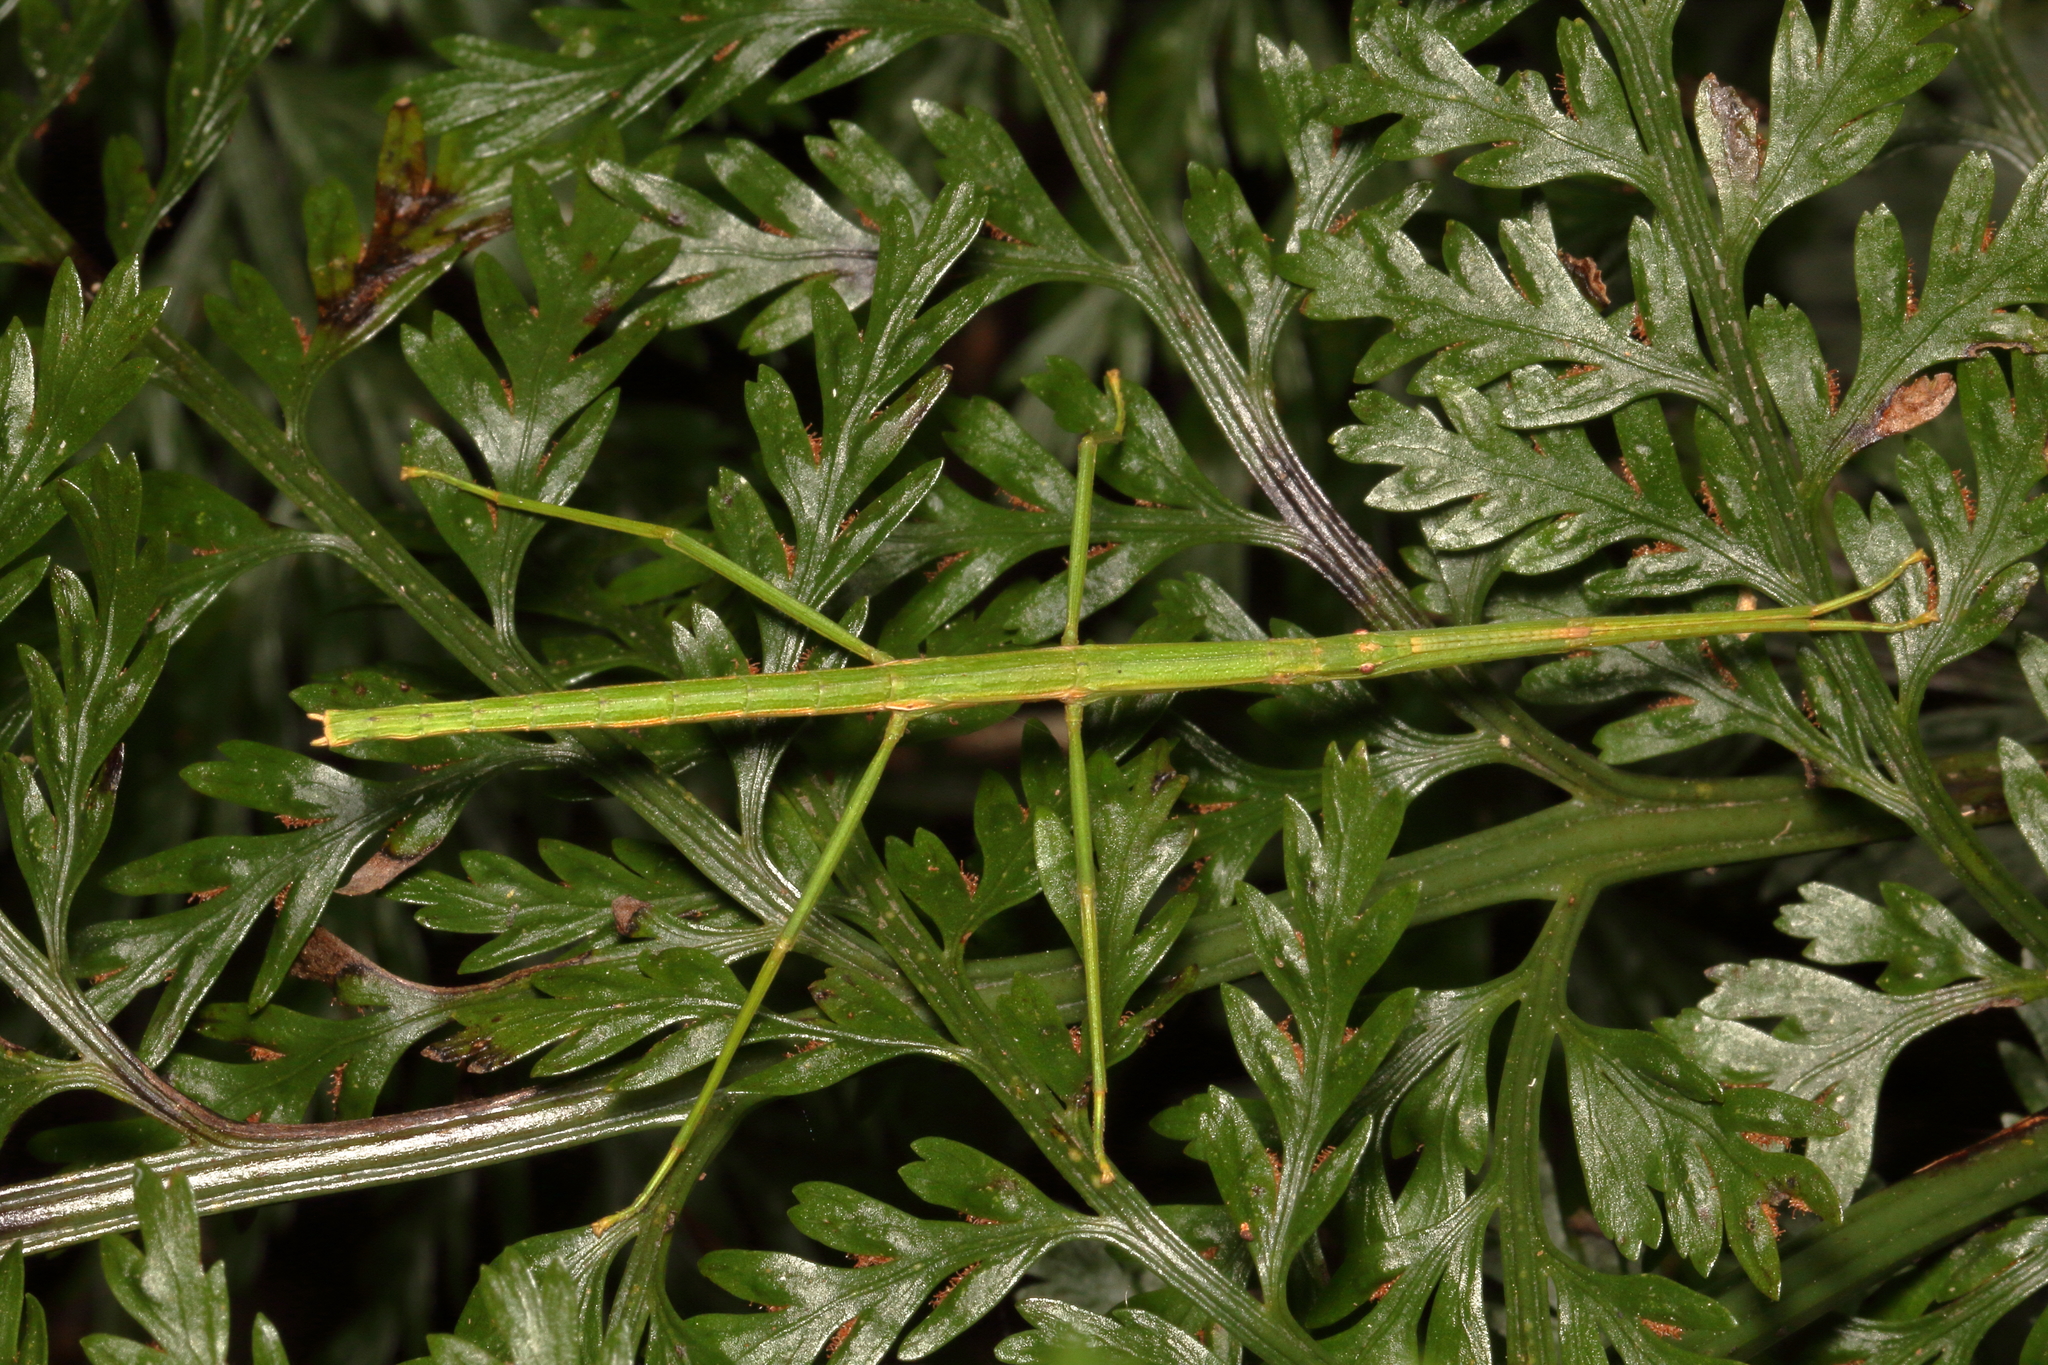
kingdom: Animalia
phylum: Arthropoda
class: Insecta
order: Phasmida
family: Phasmatidae
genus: Tectarchus
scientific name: Tectarchus salebrosus
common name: Lesser rough-skinned stick insect
